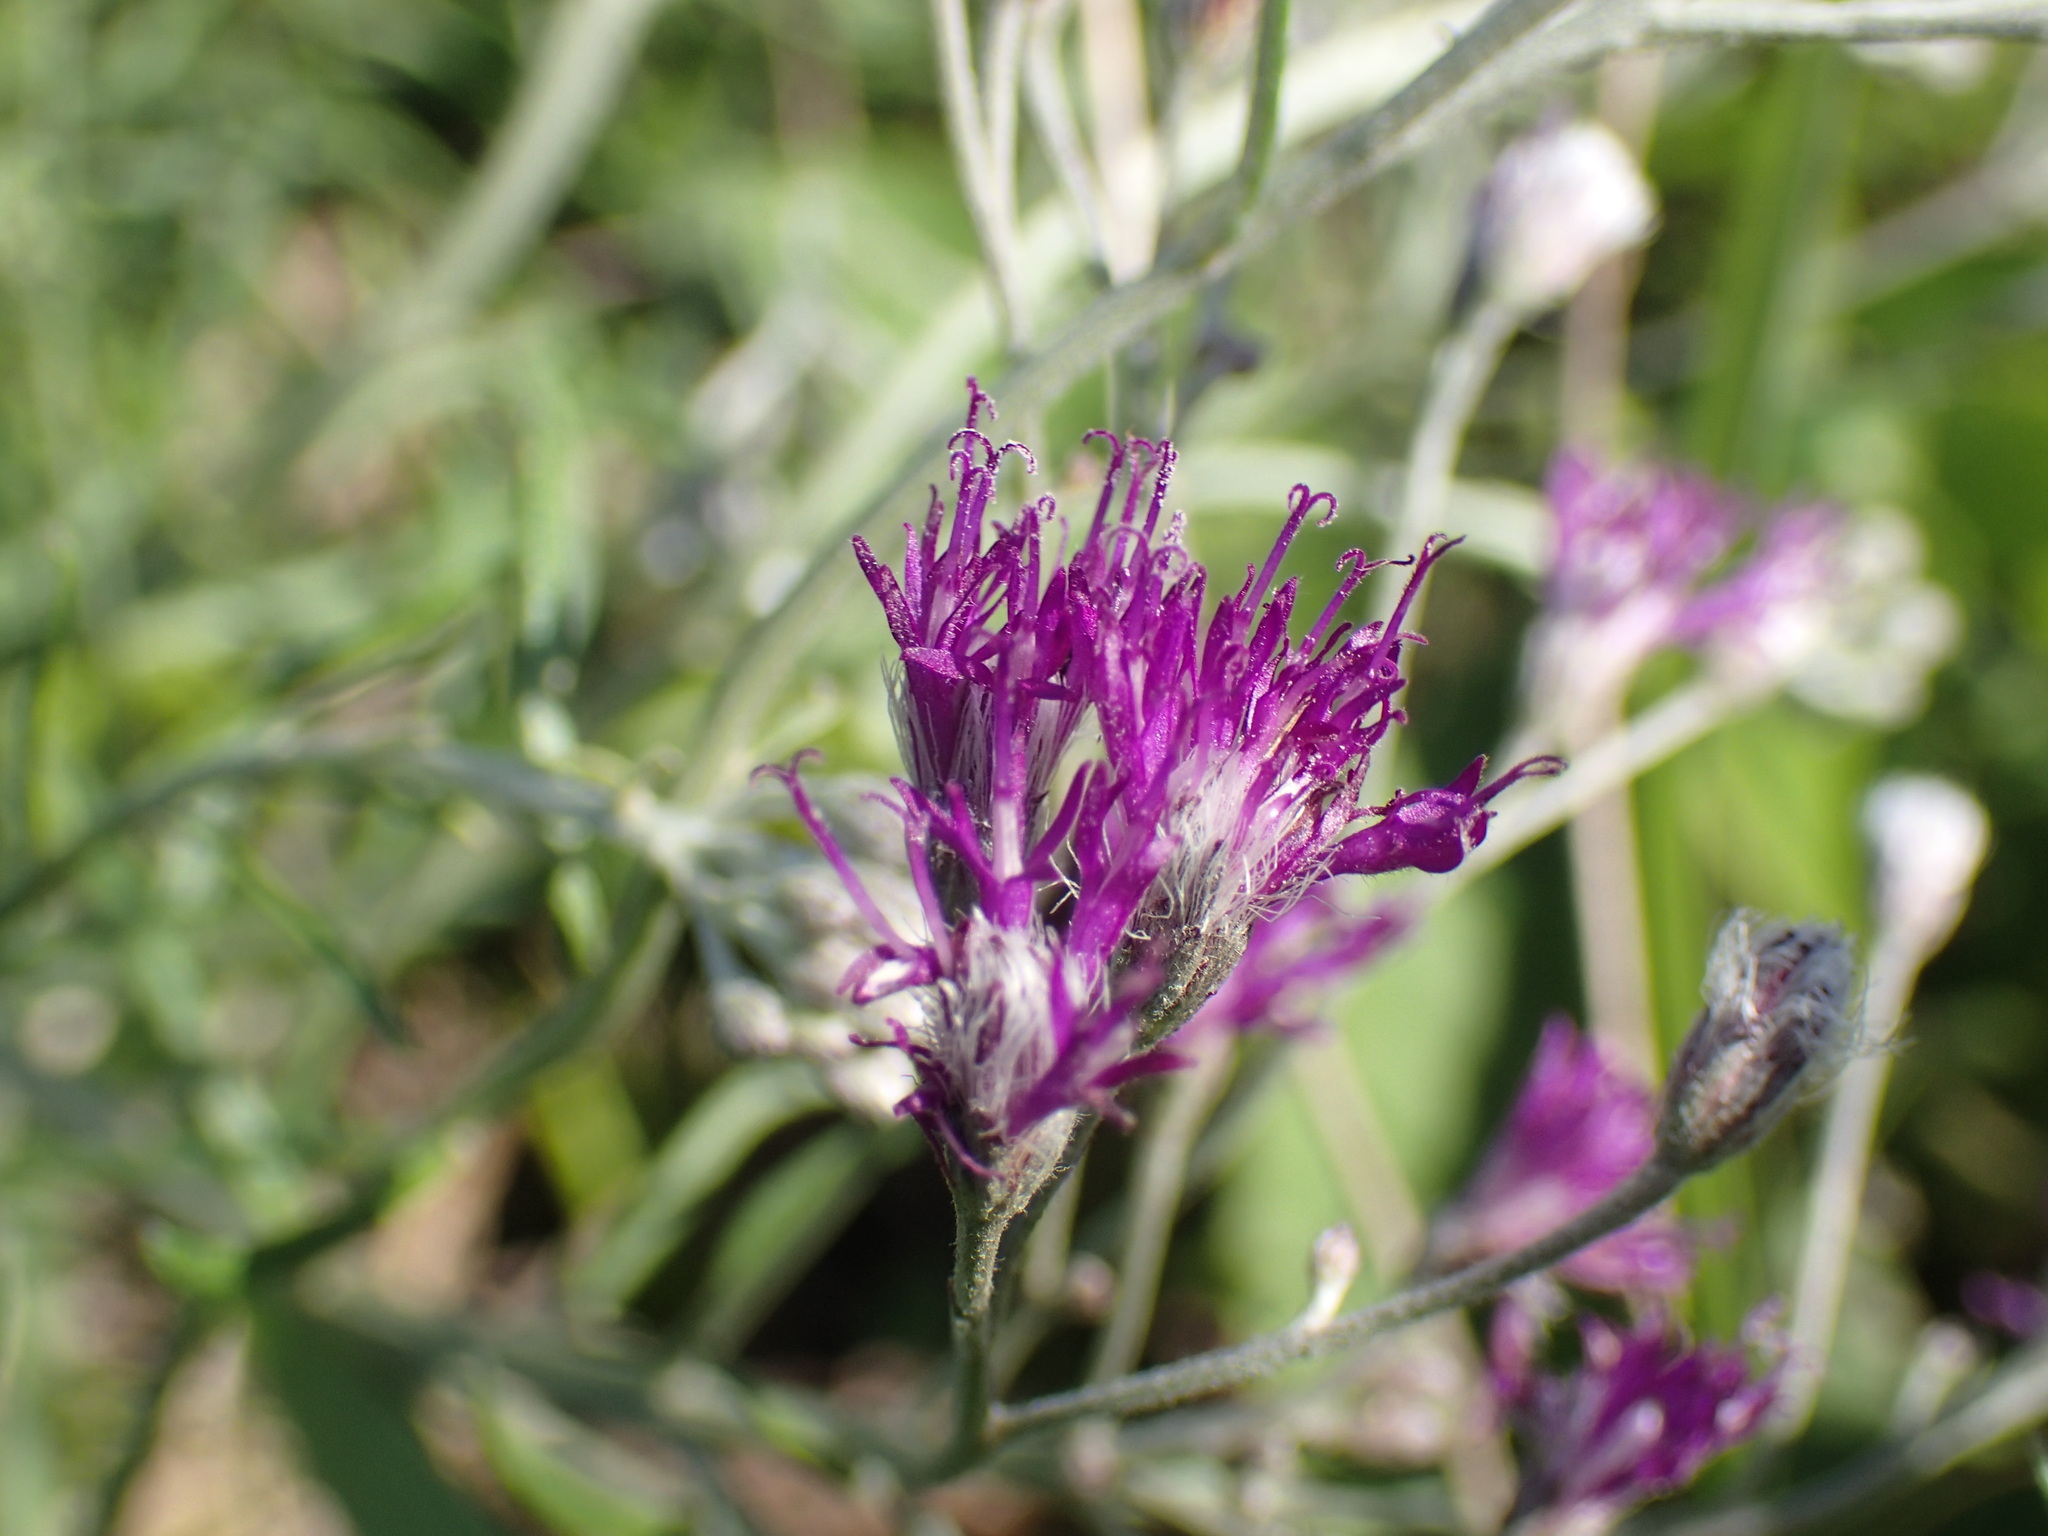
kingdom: Plantae
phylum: Tracheophyta
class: Magnoliopsida
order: Asterales
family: Asteraceae
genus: Hilliardiella
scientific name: Hilliardiella capensis
